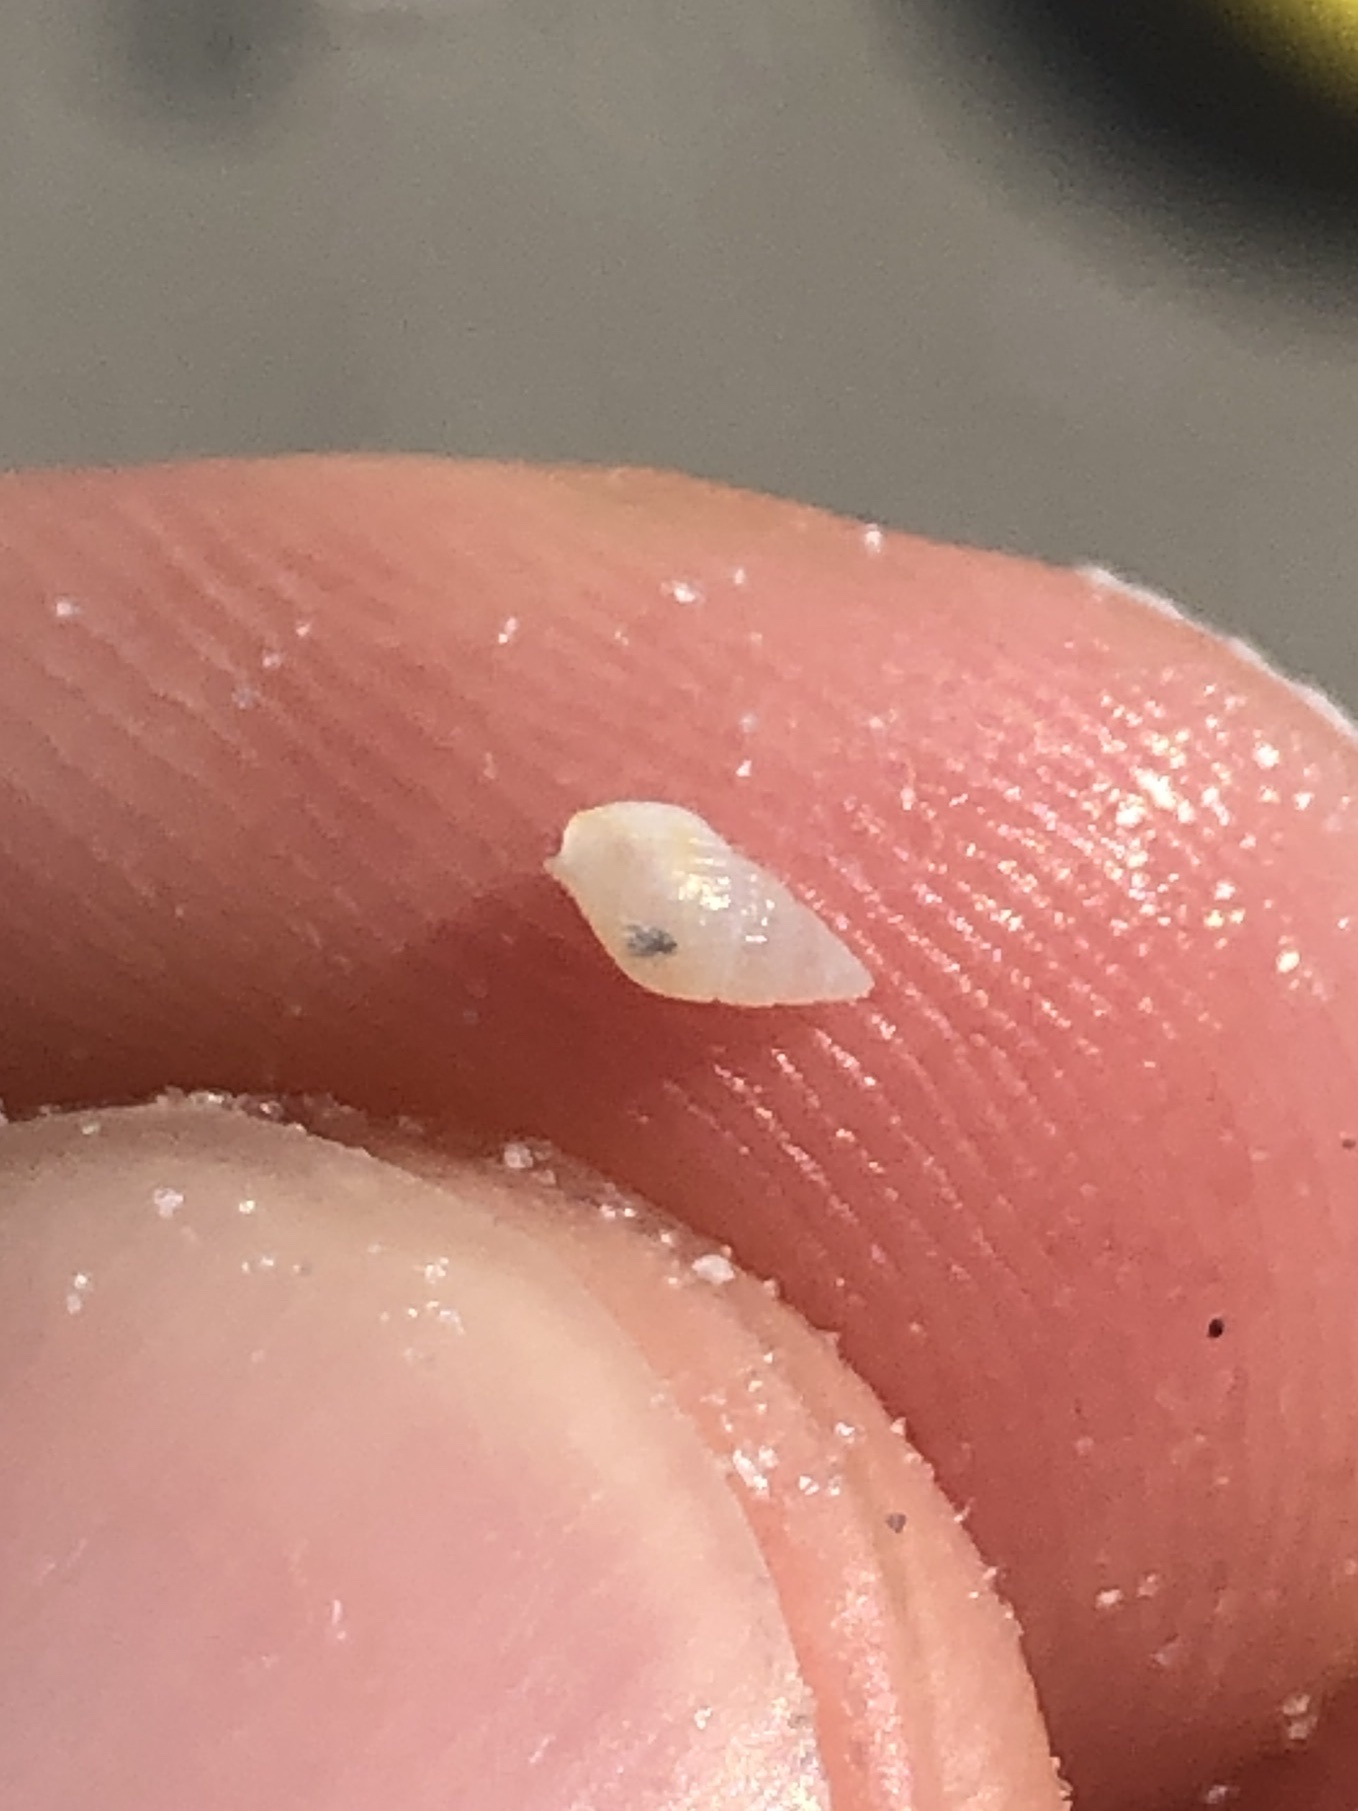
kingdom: Animalia
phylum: Mollusca
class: Gastropoda
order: Neogastropoda
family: Columbellidae
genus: Parvanachis
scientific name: Parvanachis obesa
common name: Fat dovesnail
